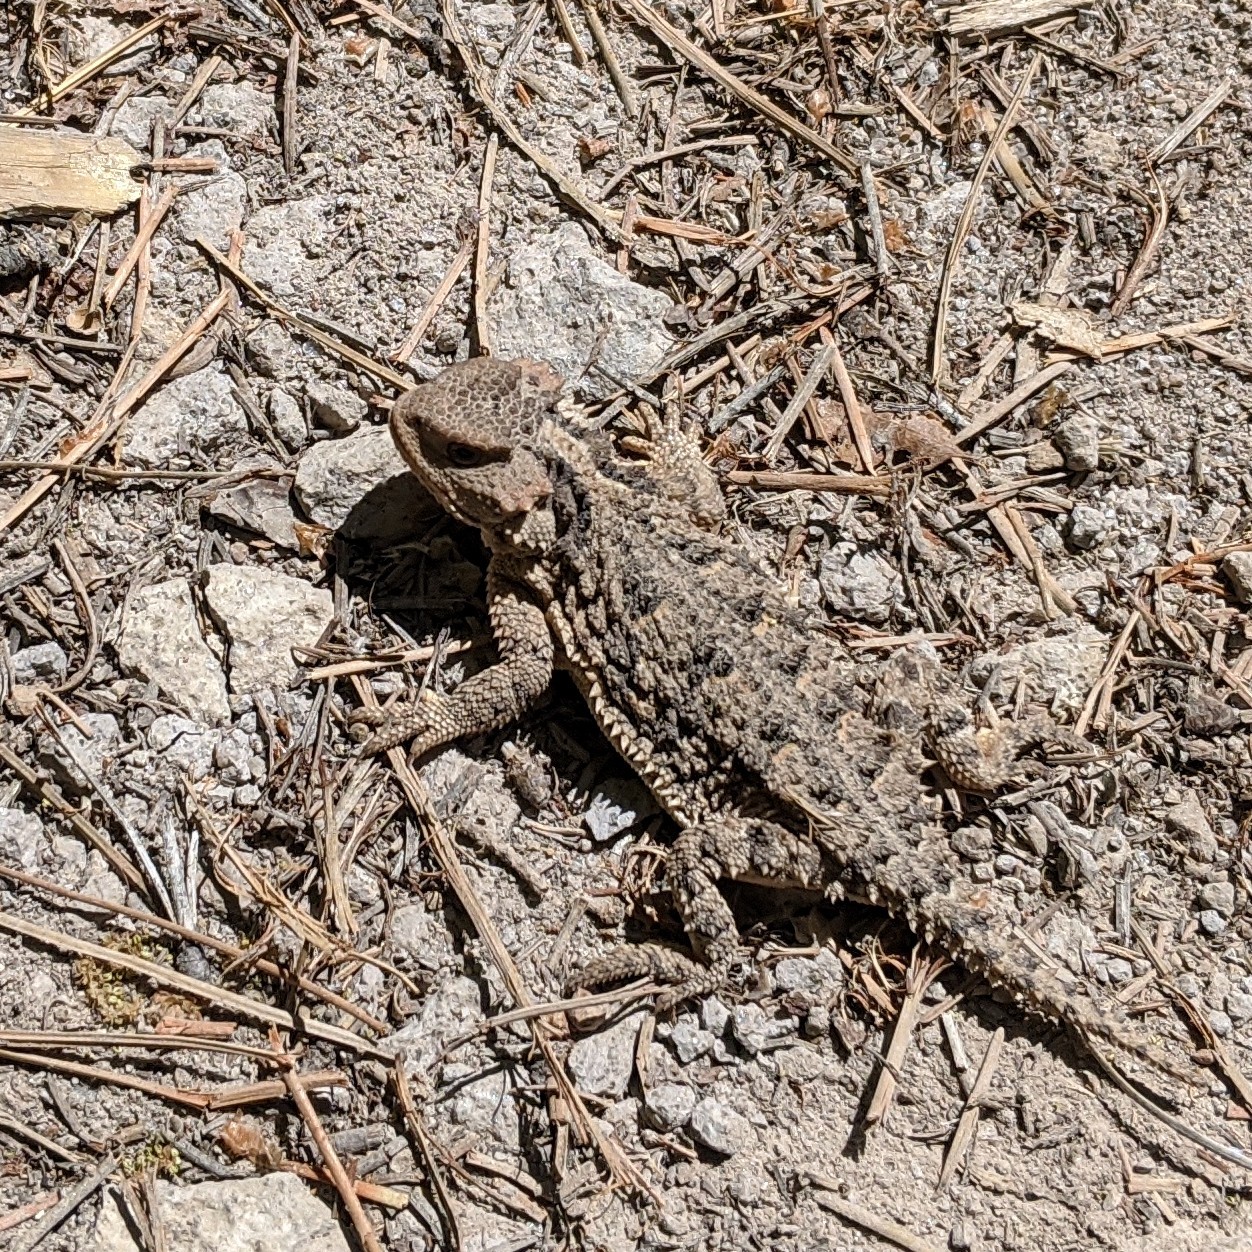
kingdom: Animalia
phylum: Chordata
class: Squamata
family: Phrynosomatidae
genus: Phrynosoma
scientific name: Phrynosoma hernandesi
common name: Greater short-horned lizard
